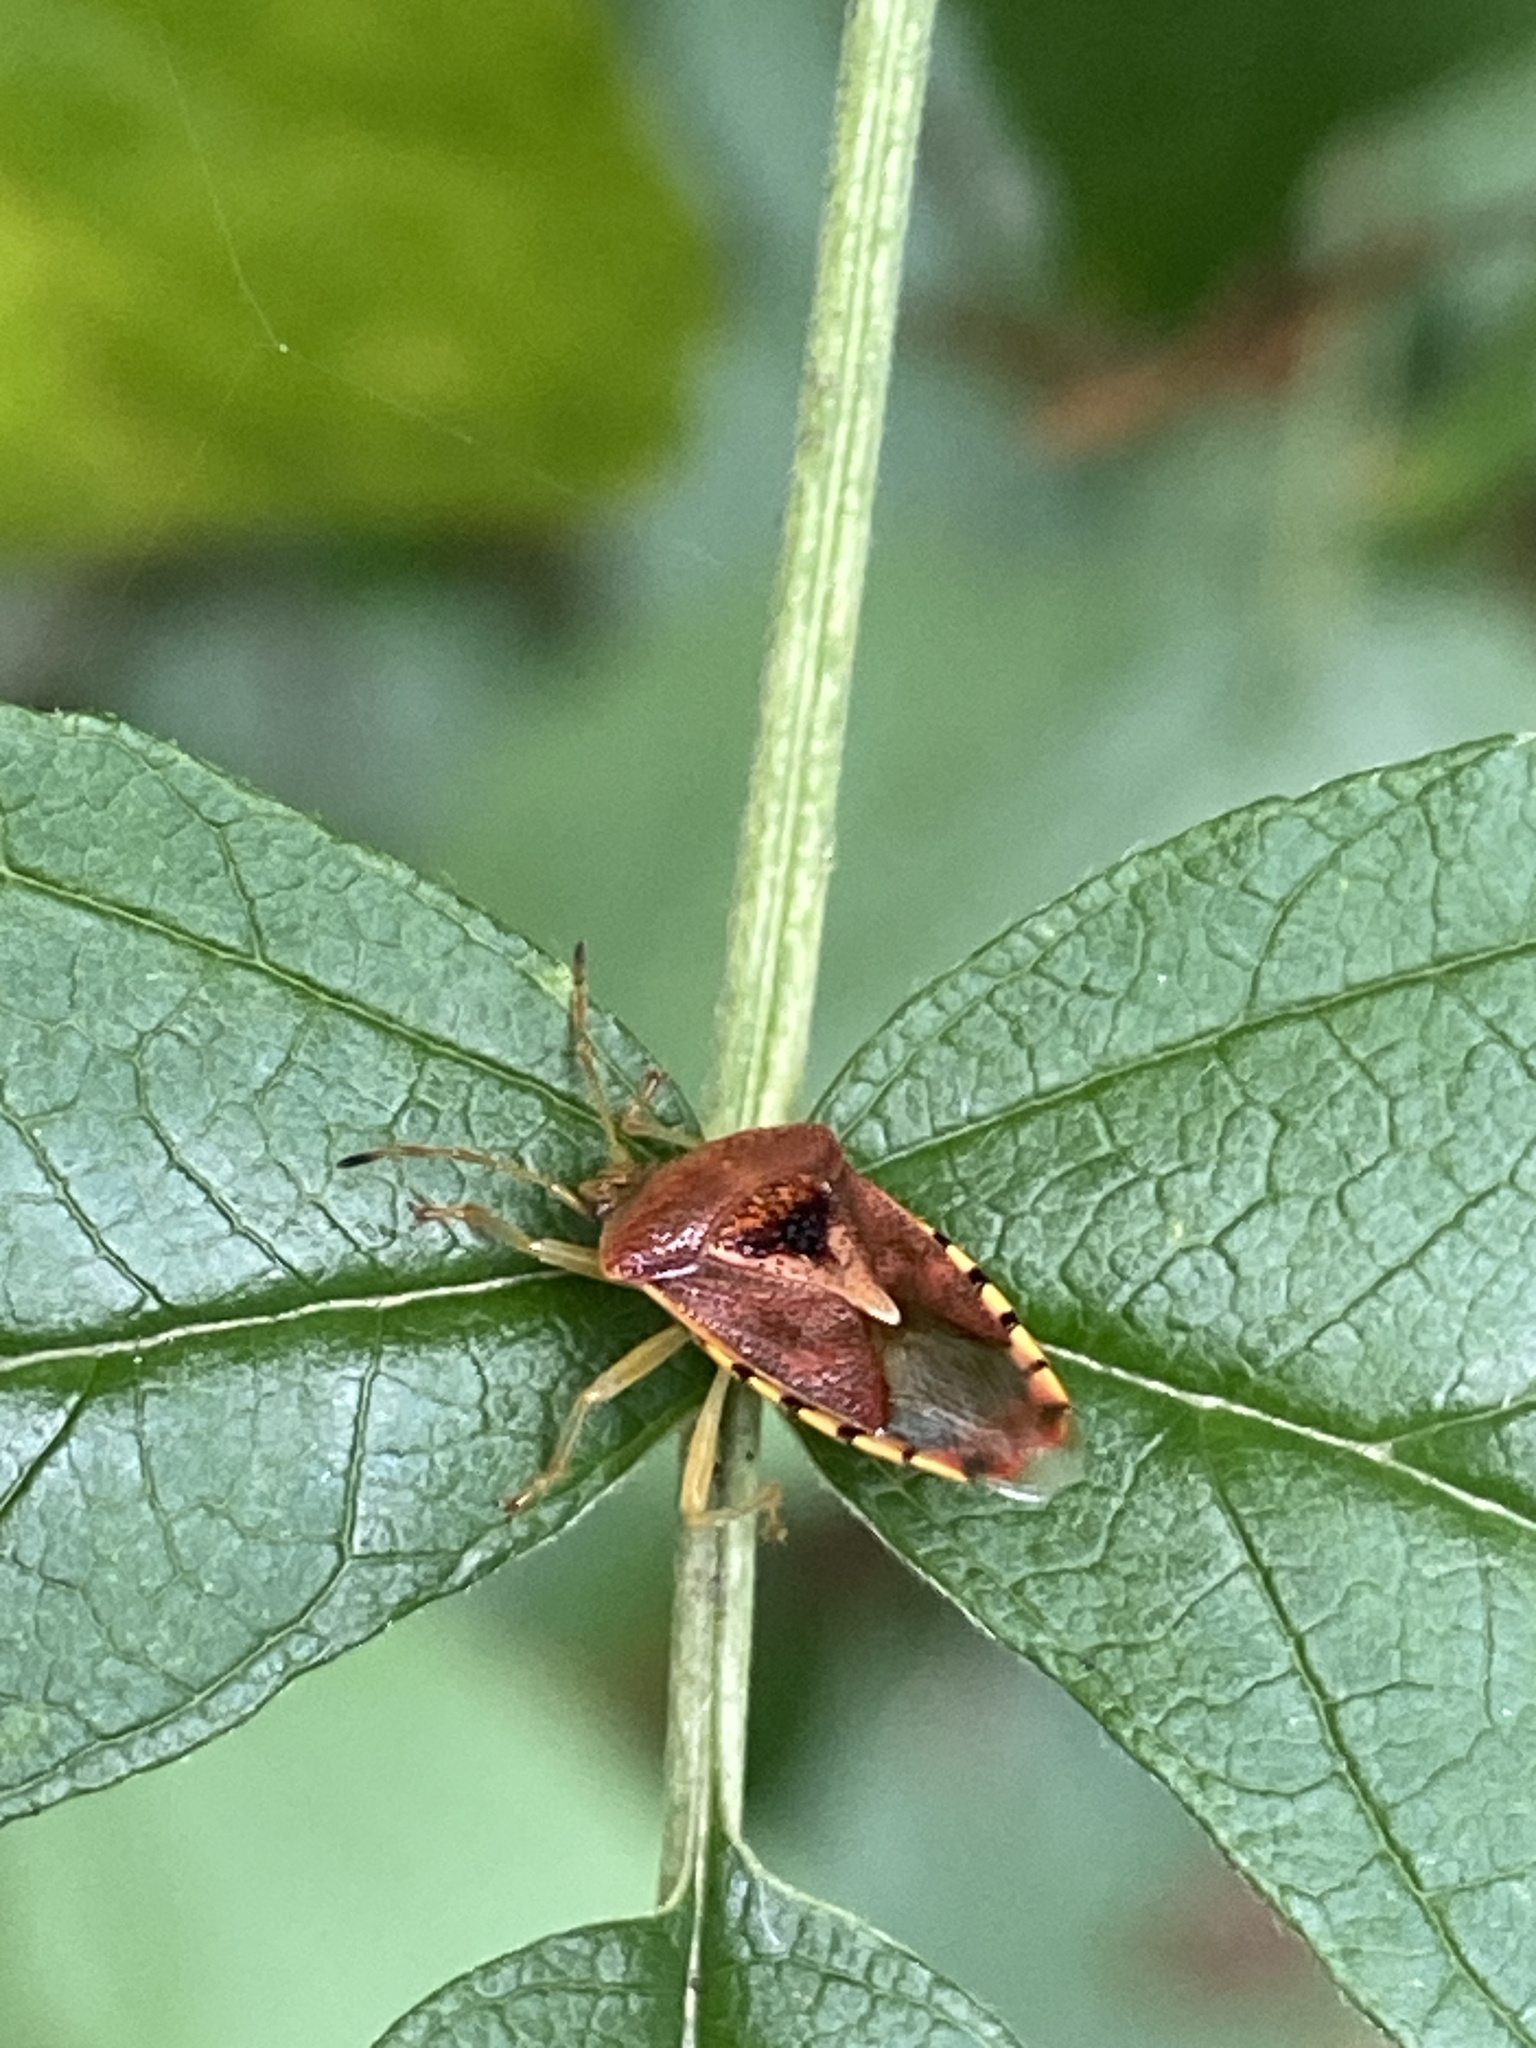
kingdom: Animalia
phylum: Arthropoda
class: Insecta
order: Hemiptera
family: Acanthosomatidae
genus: Elasmucha
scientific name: Elasmucha grisea
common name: Parent bug
